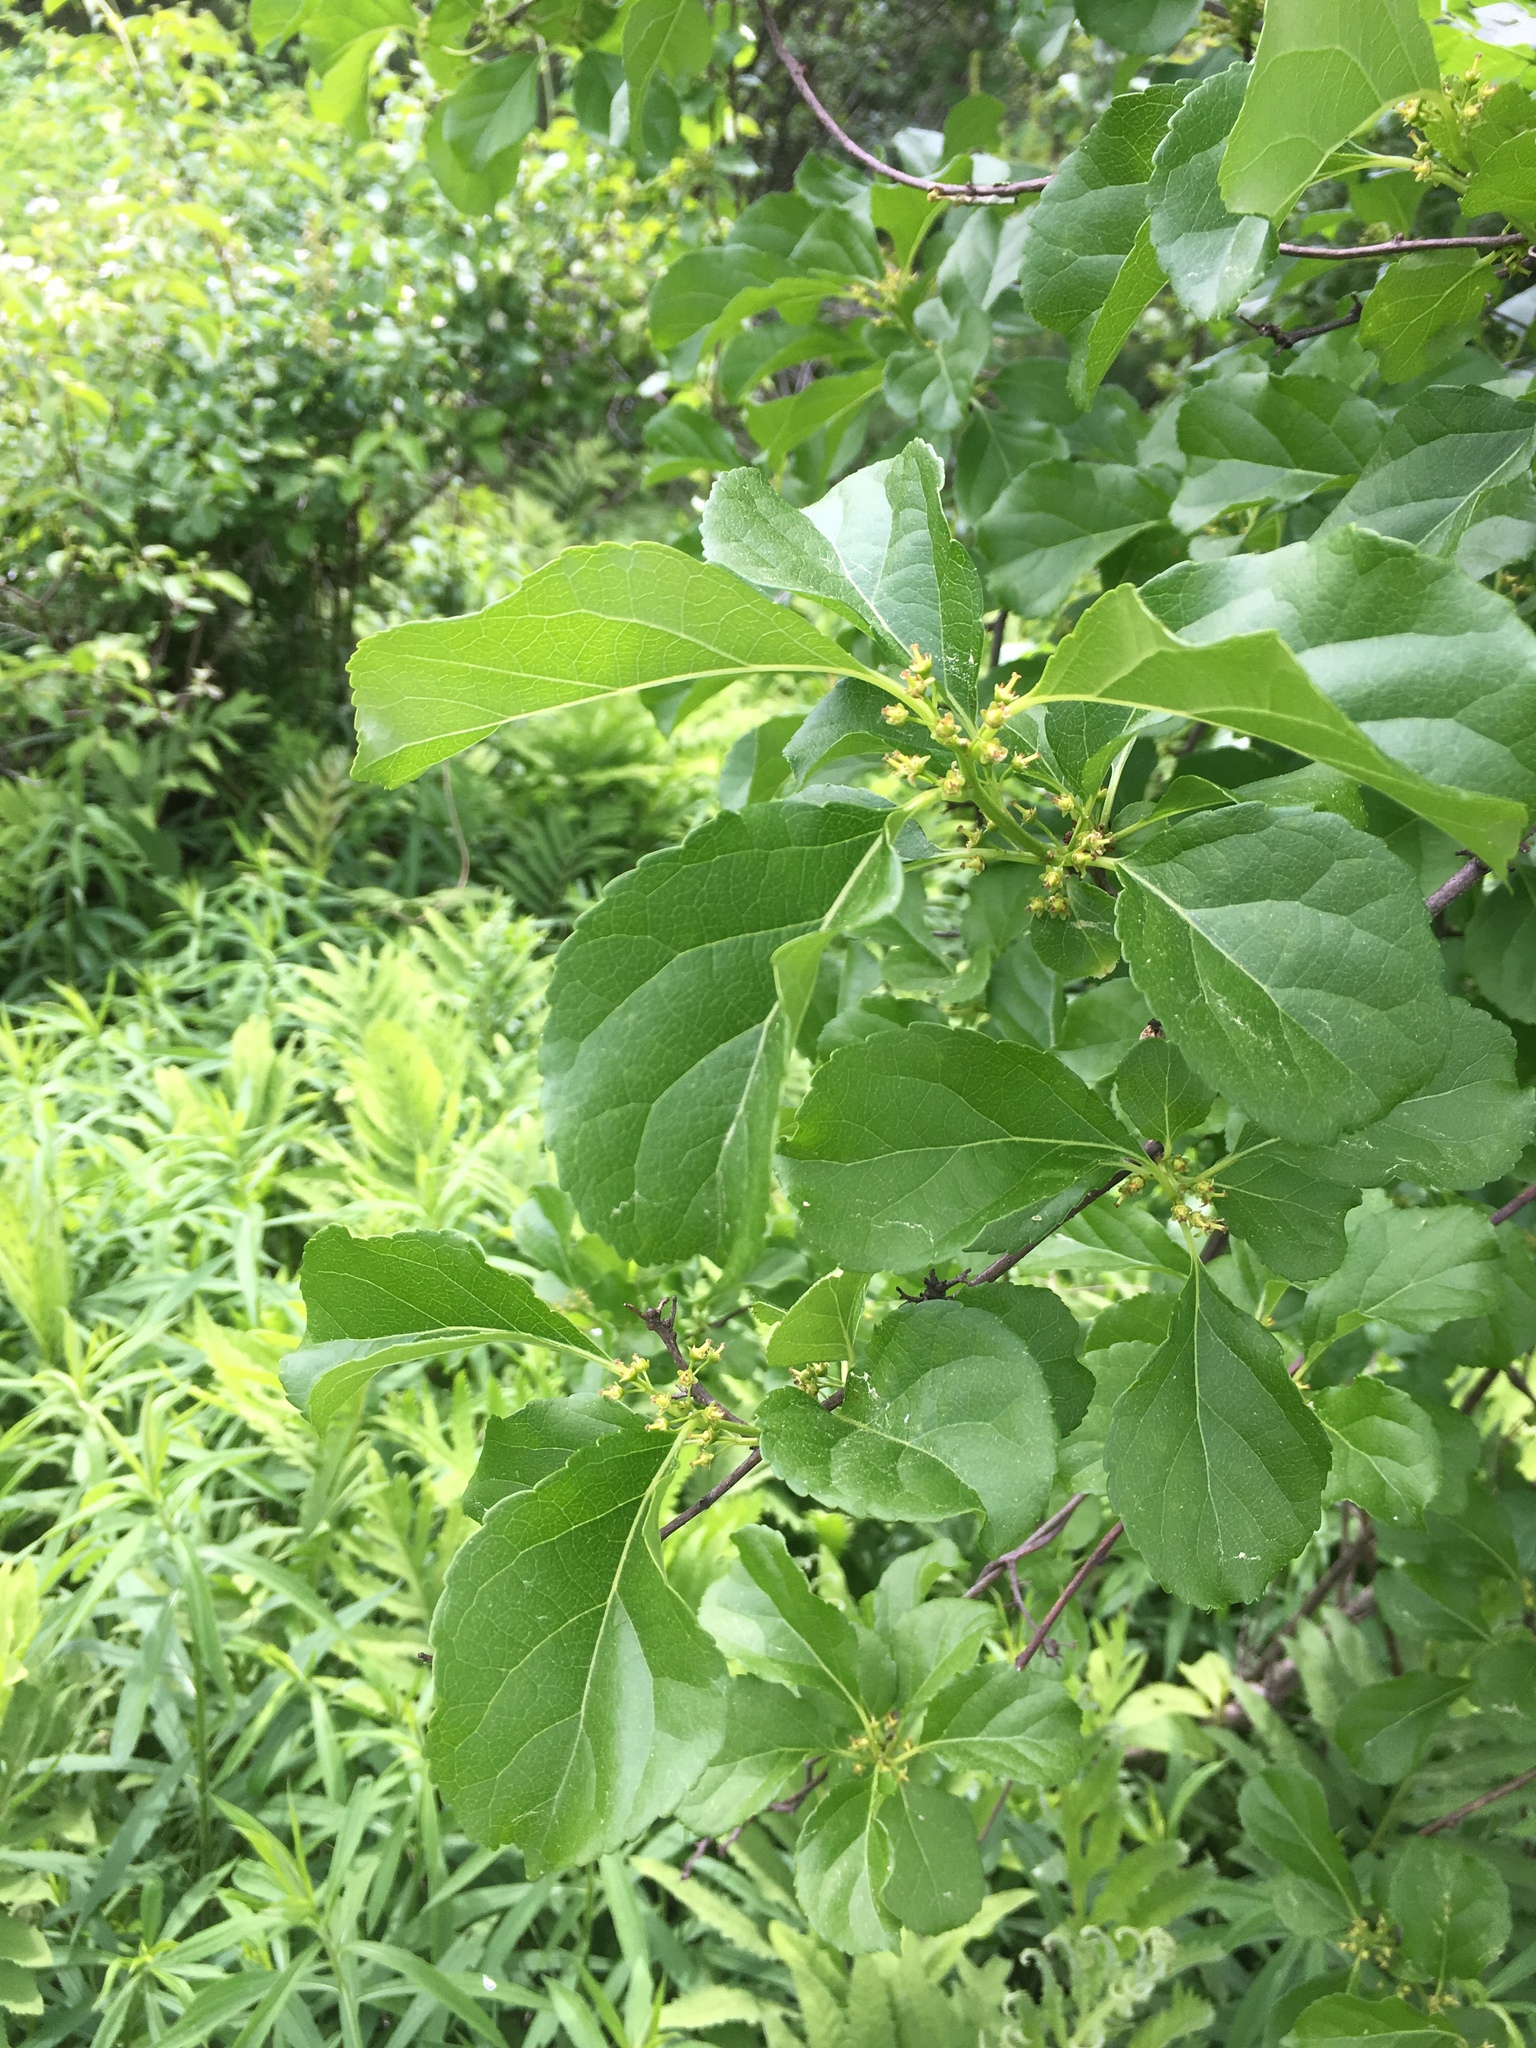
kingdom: Plantae
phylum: Tracheophyta
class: Magnoliopsida
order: Celastrales
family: Celastraceae
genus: Celastrus
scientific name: Celastrus orbiculatus
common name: Oriental bittersweet
